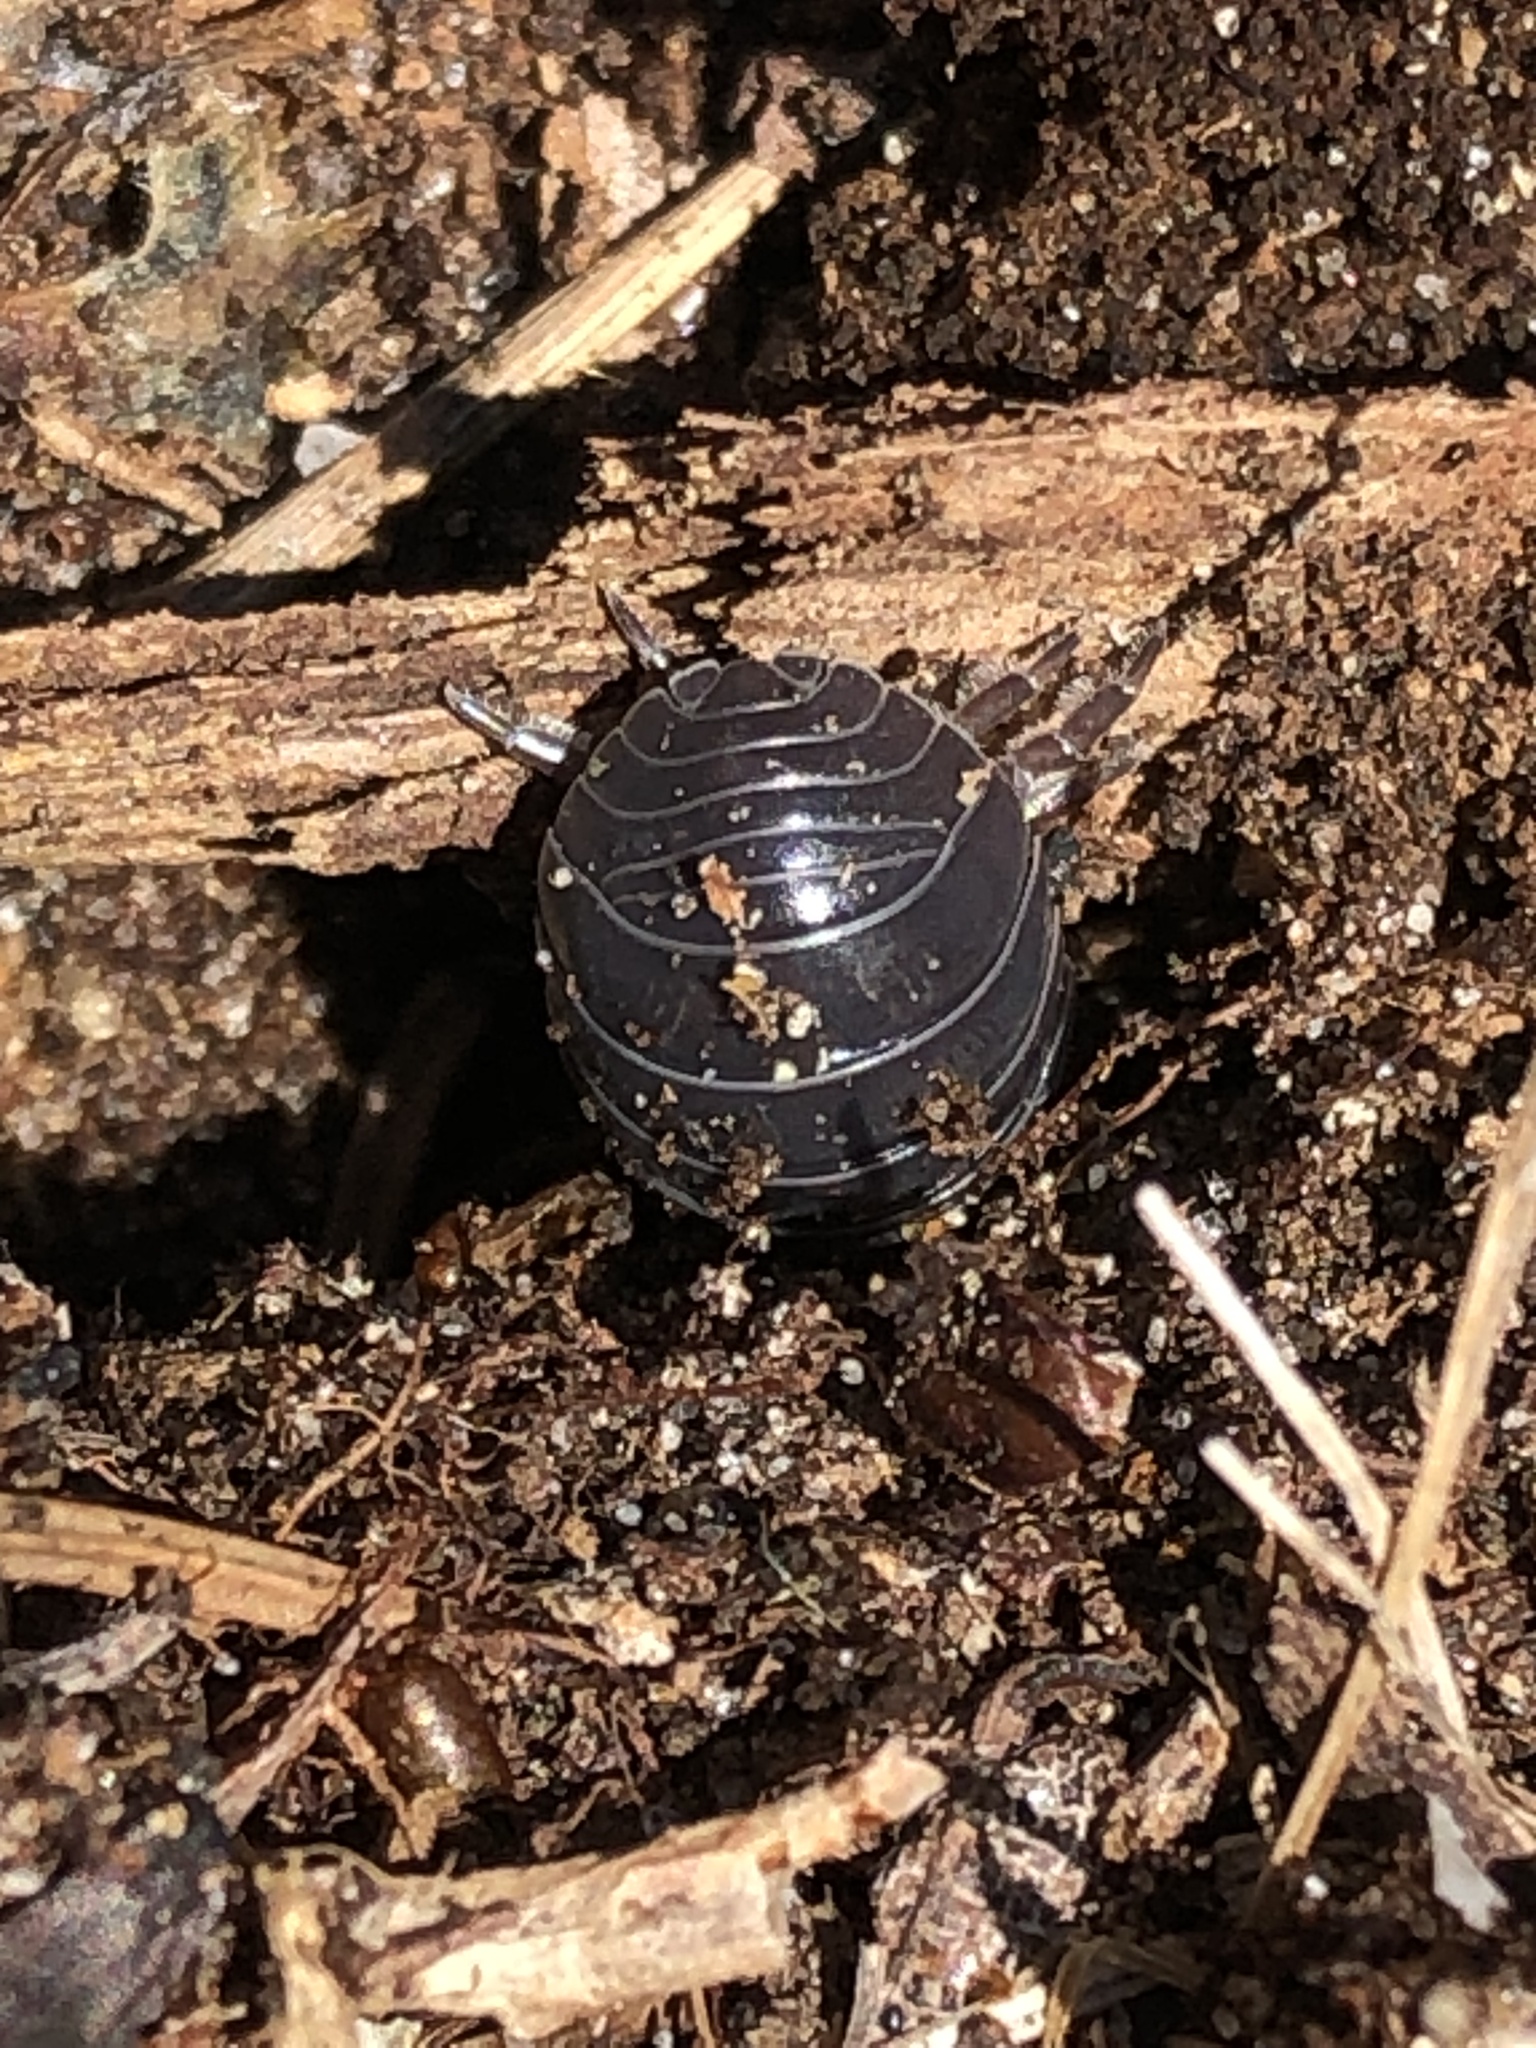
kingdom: Animalia
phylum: Arthropoda
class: Malacostraca
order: Isopoda
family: Armadillidiidae
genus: Armadillidium
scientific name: Armadillidium vulgare
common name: Common pill woodlouse
